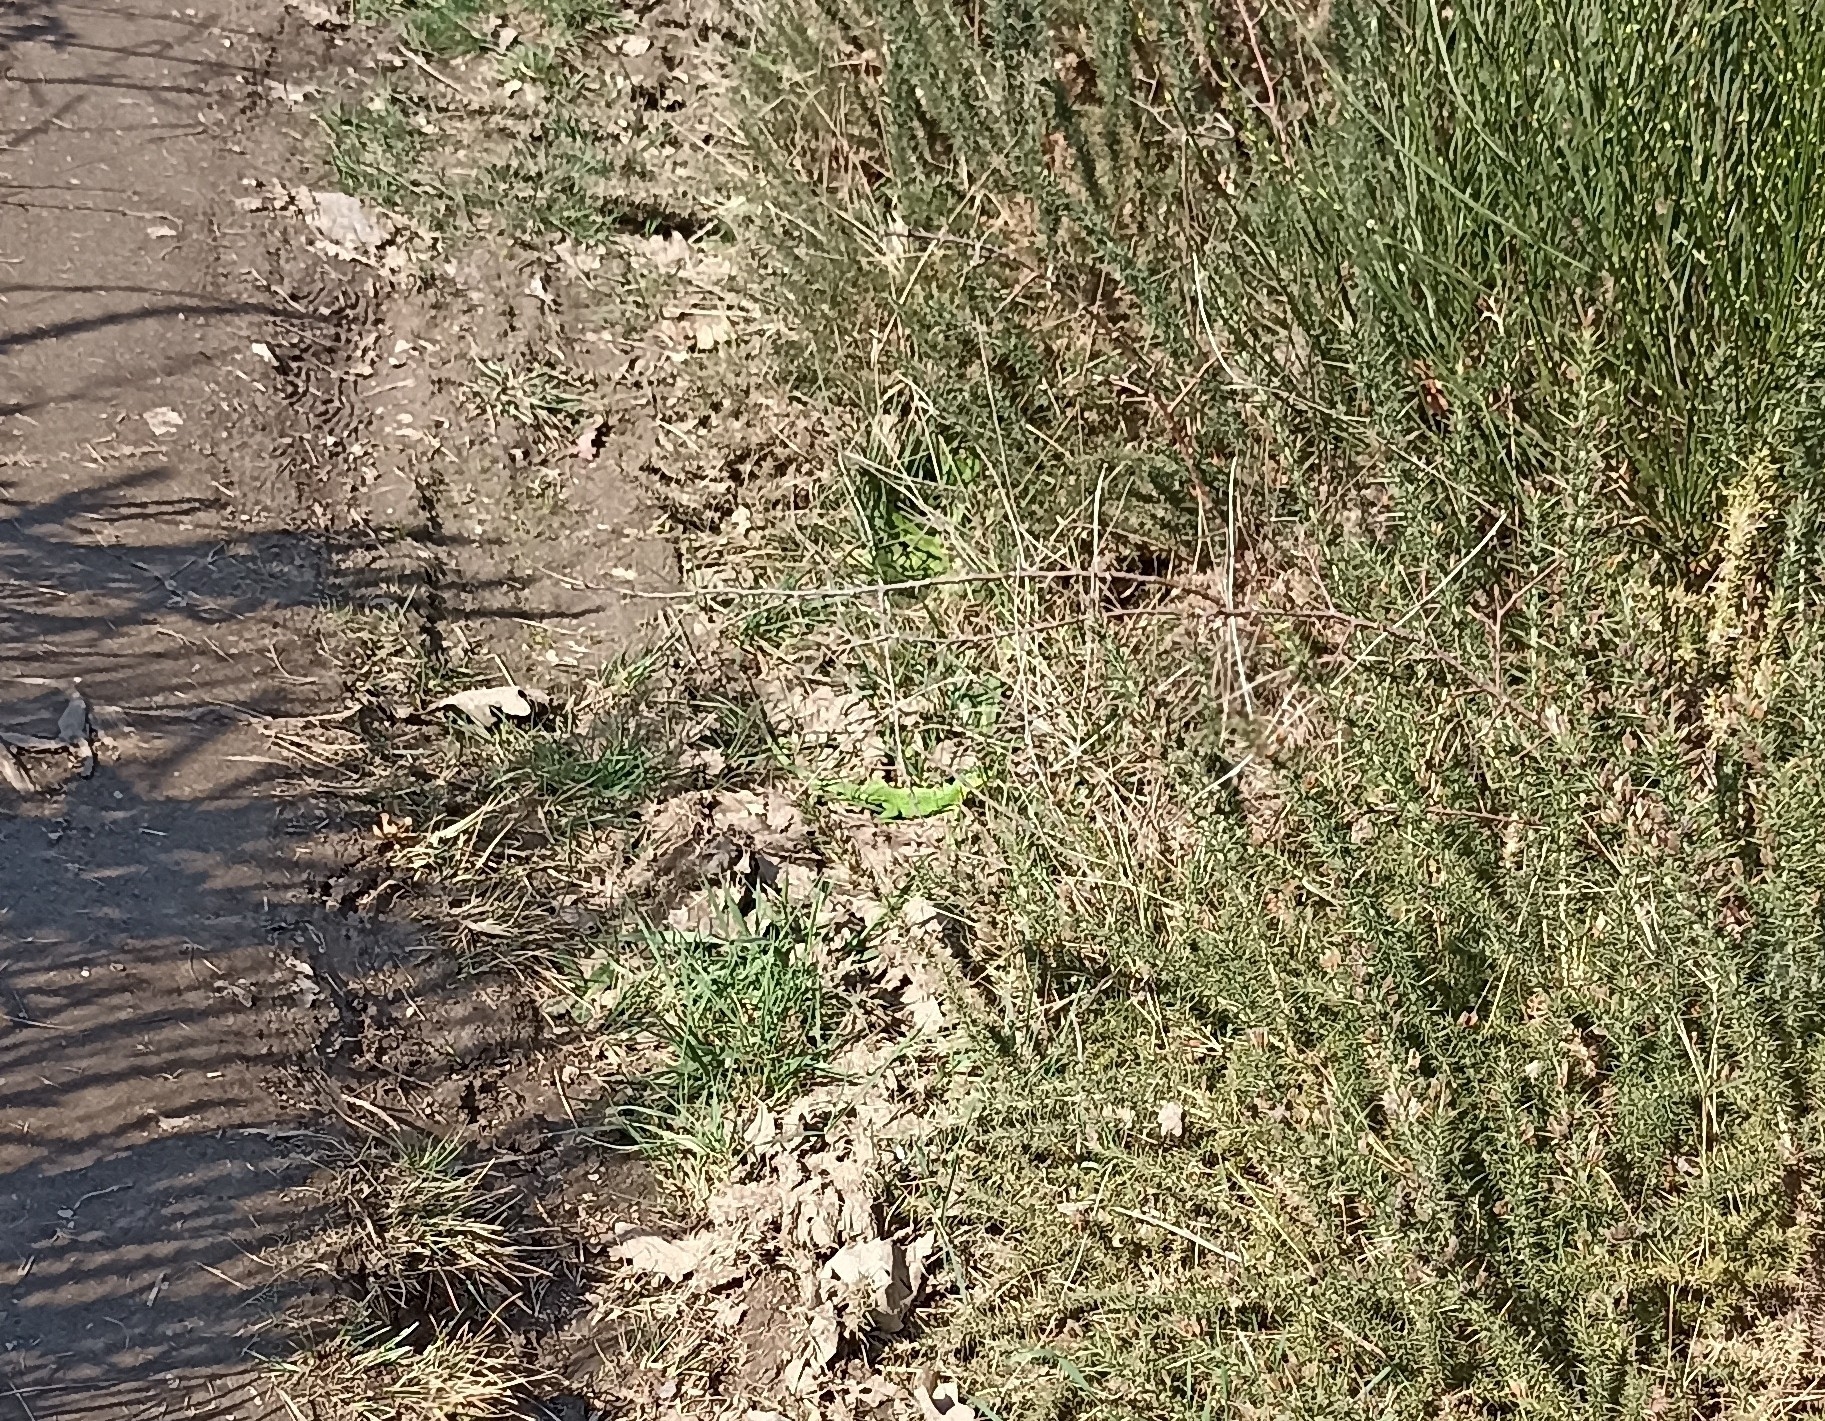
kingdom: Animalia
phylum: Chordata
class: Squamata
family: Lacertidae
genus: Lacerta
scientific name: Lacerta bilineata
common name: Western green lizard
